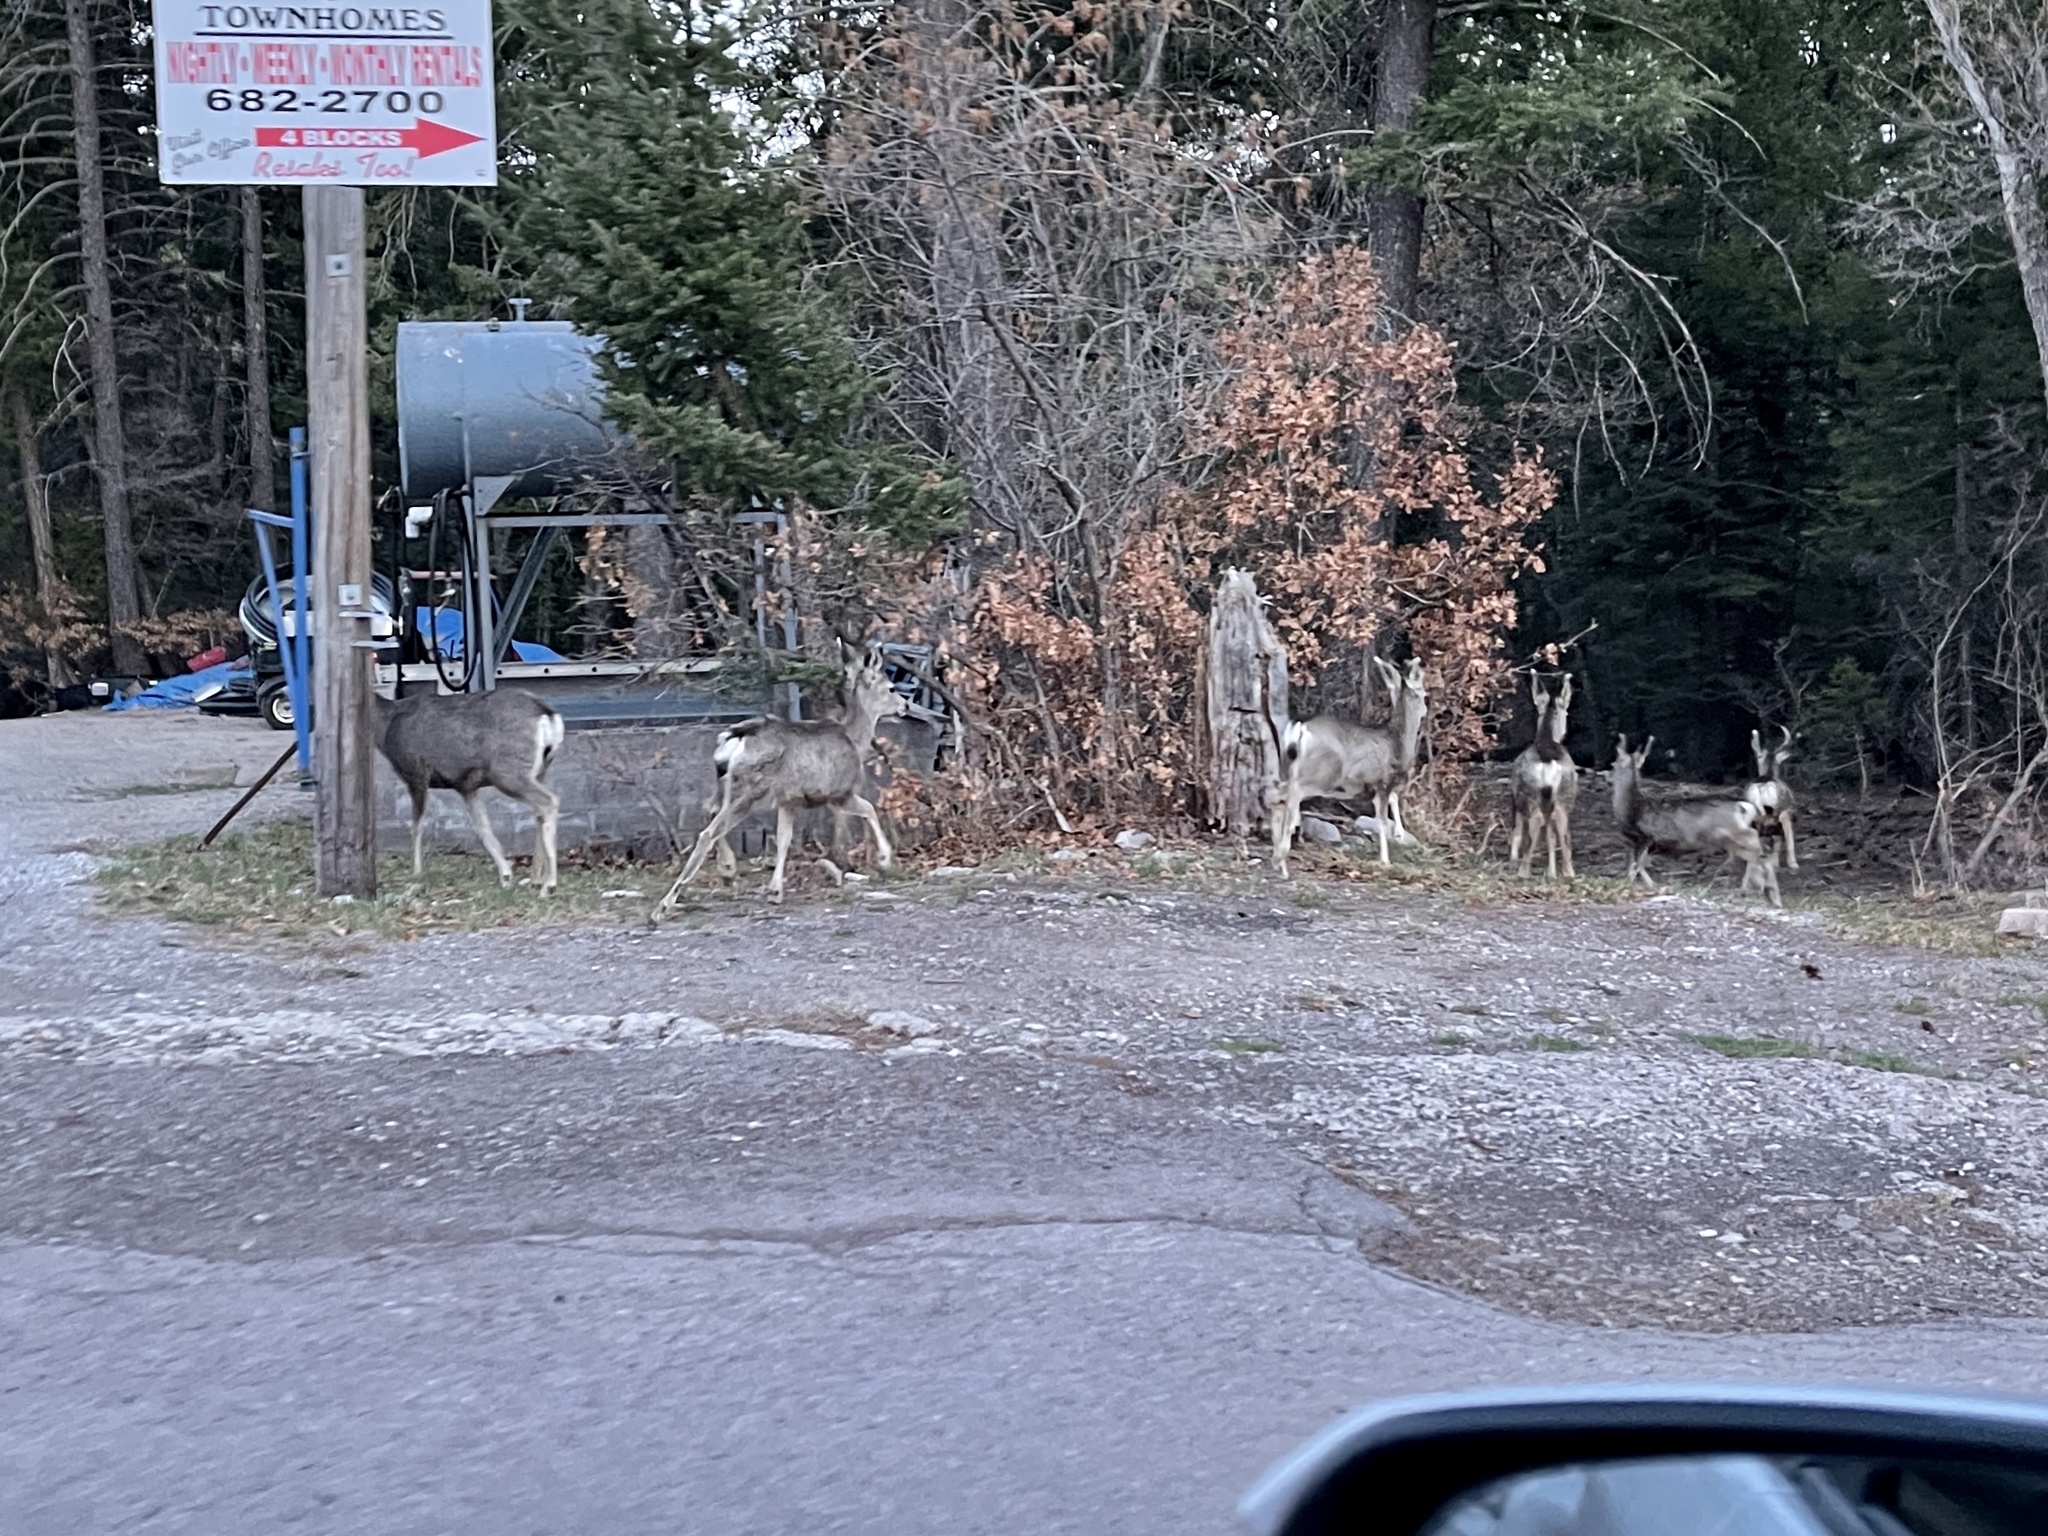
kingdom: Animalia
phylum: Chordata
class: Mammalia
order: Artiodactyla
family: Cervidae
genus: Odocoileus
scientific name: Odocoileus hemionus
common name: Mule deer
